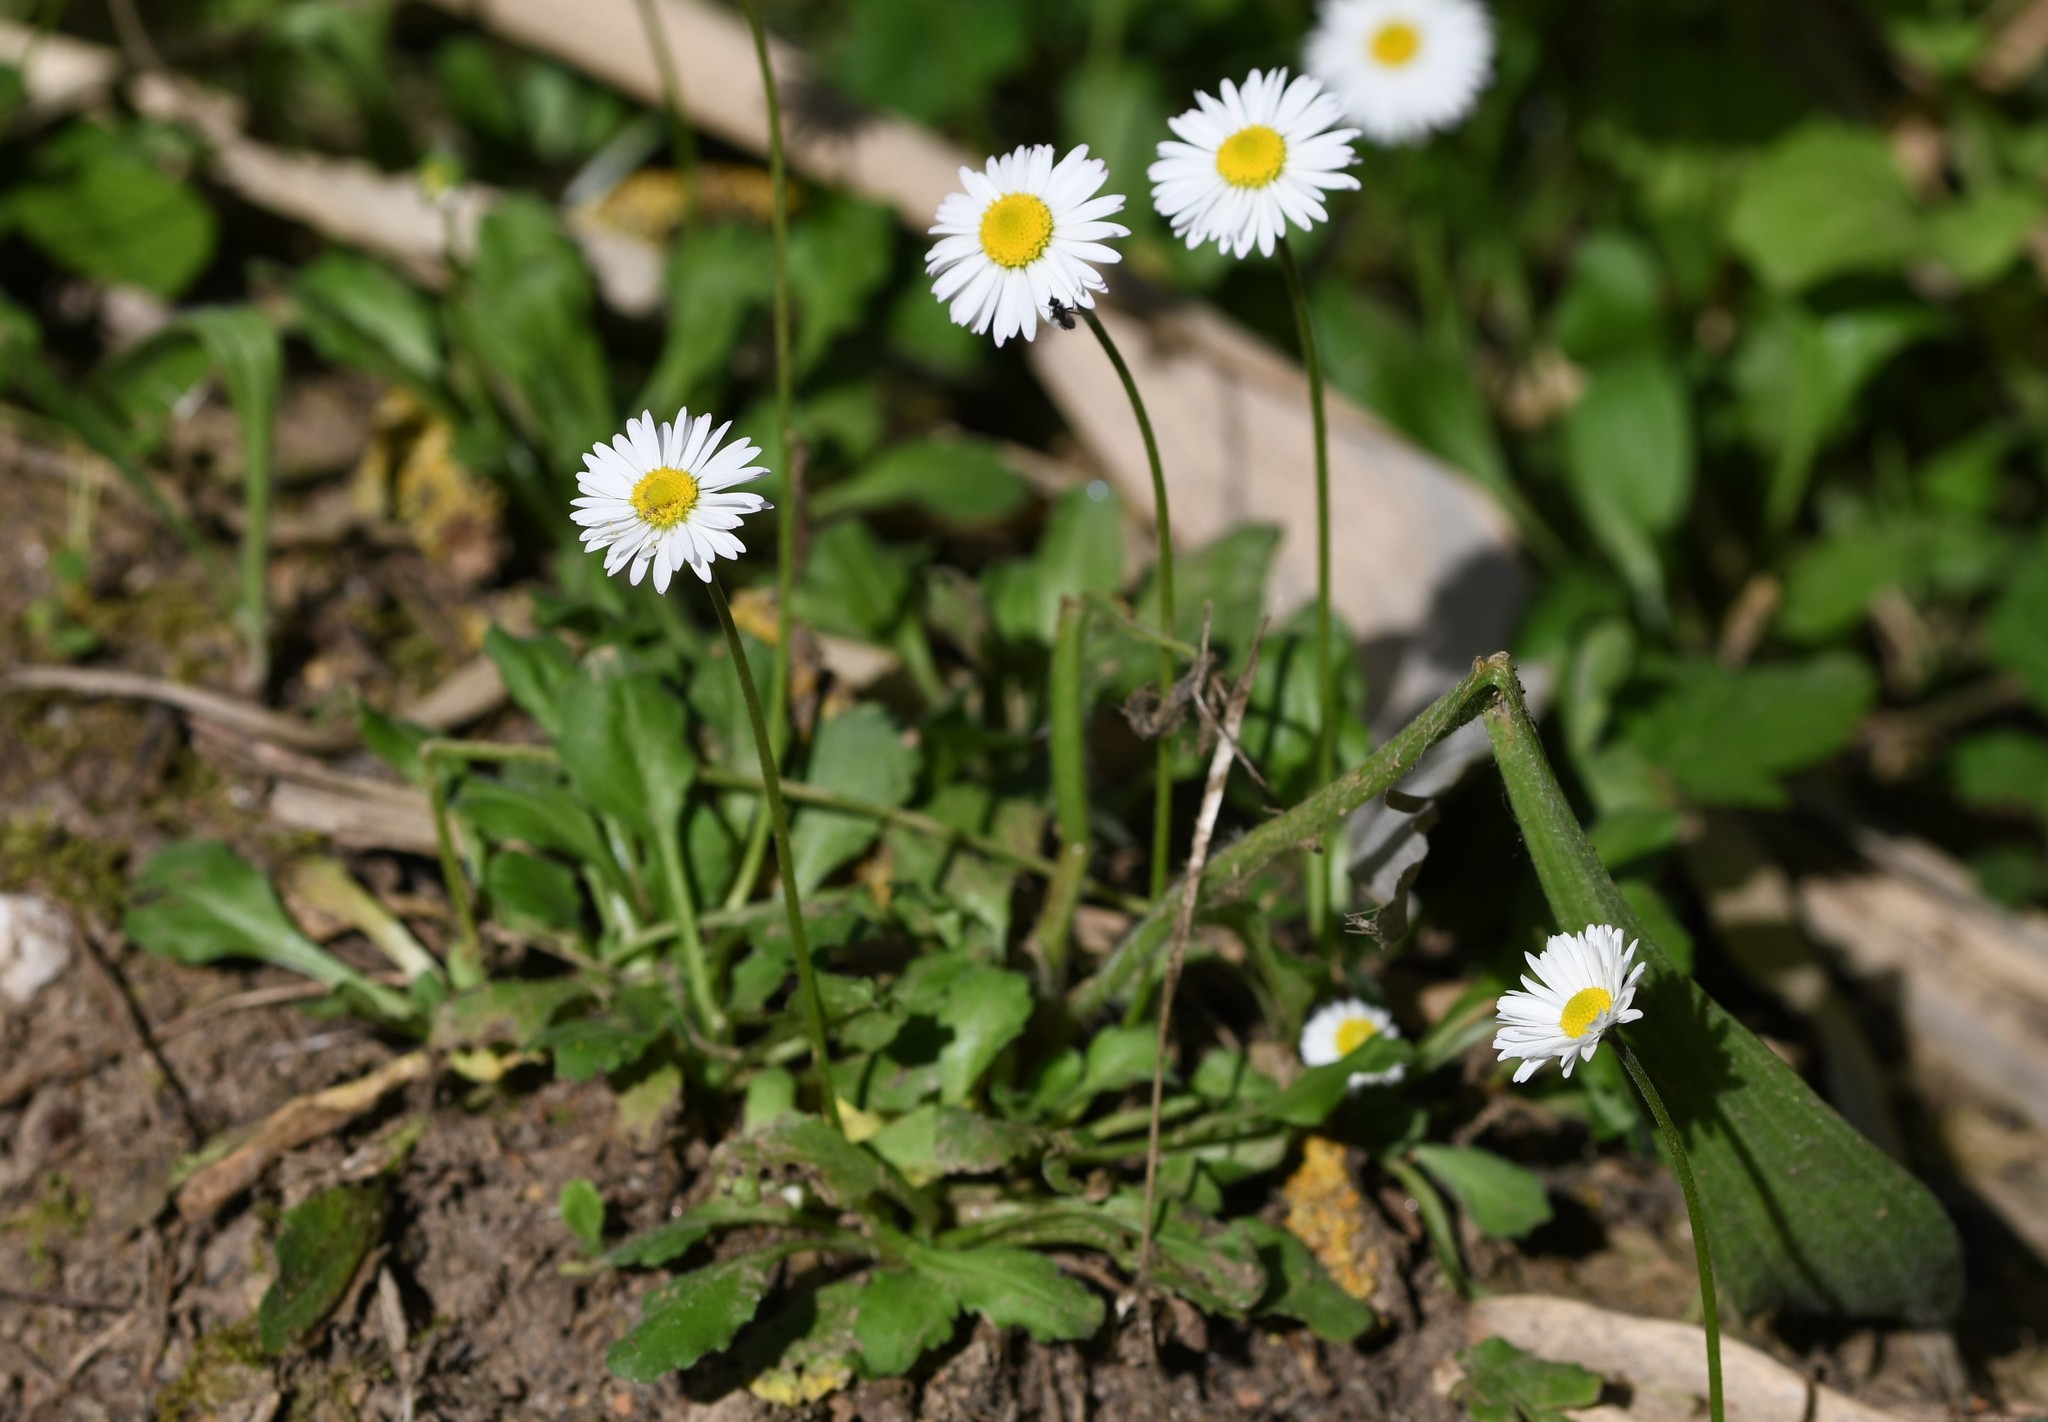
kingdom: Plantae
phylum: Tracheophyta
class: Magnoliopsida
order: Asterales
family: Asteraceae
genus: Bellis
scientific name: Bellis perennis
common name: Lawndaisy
